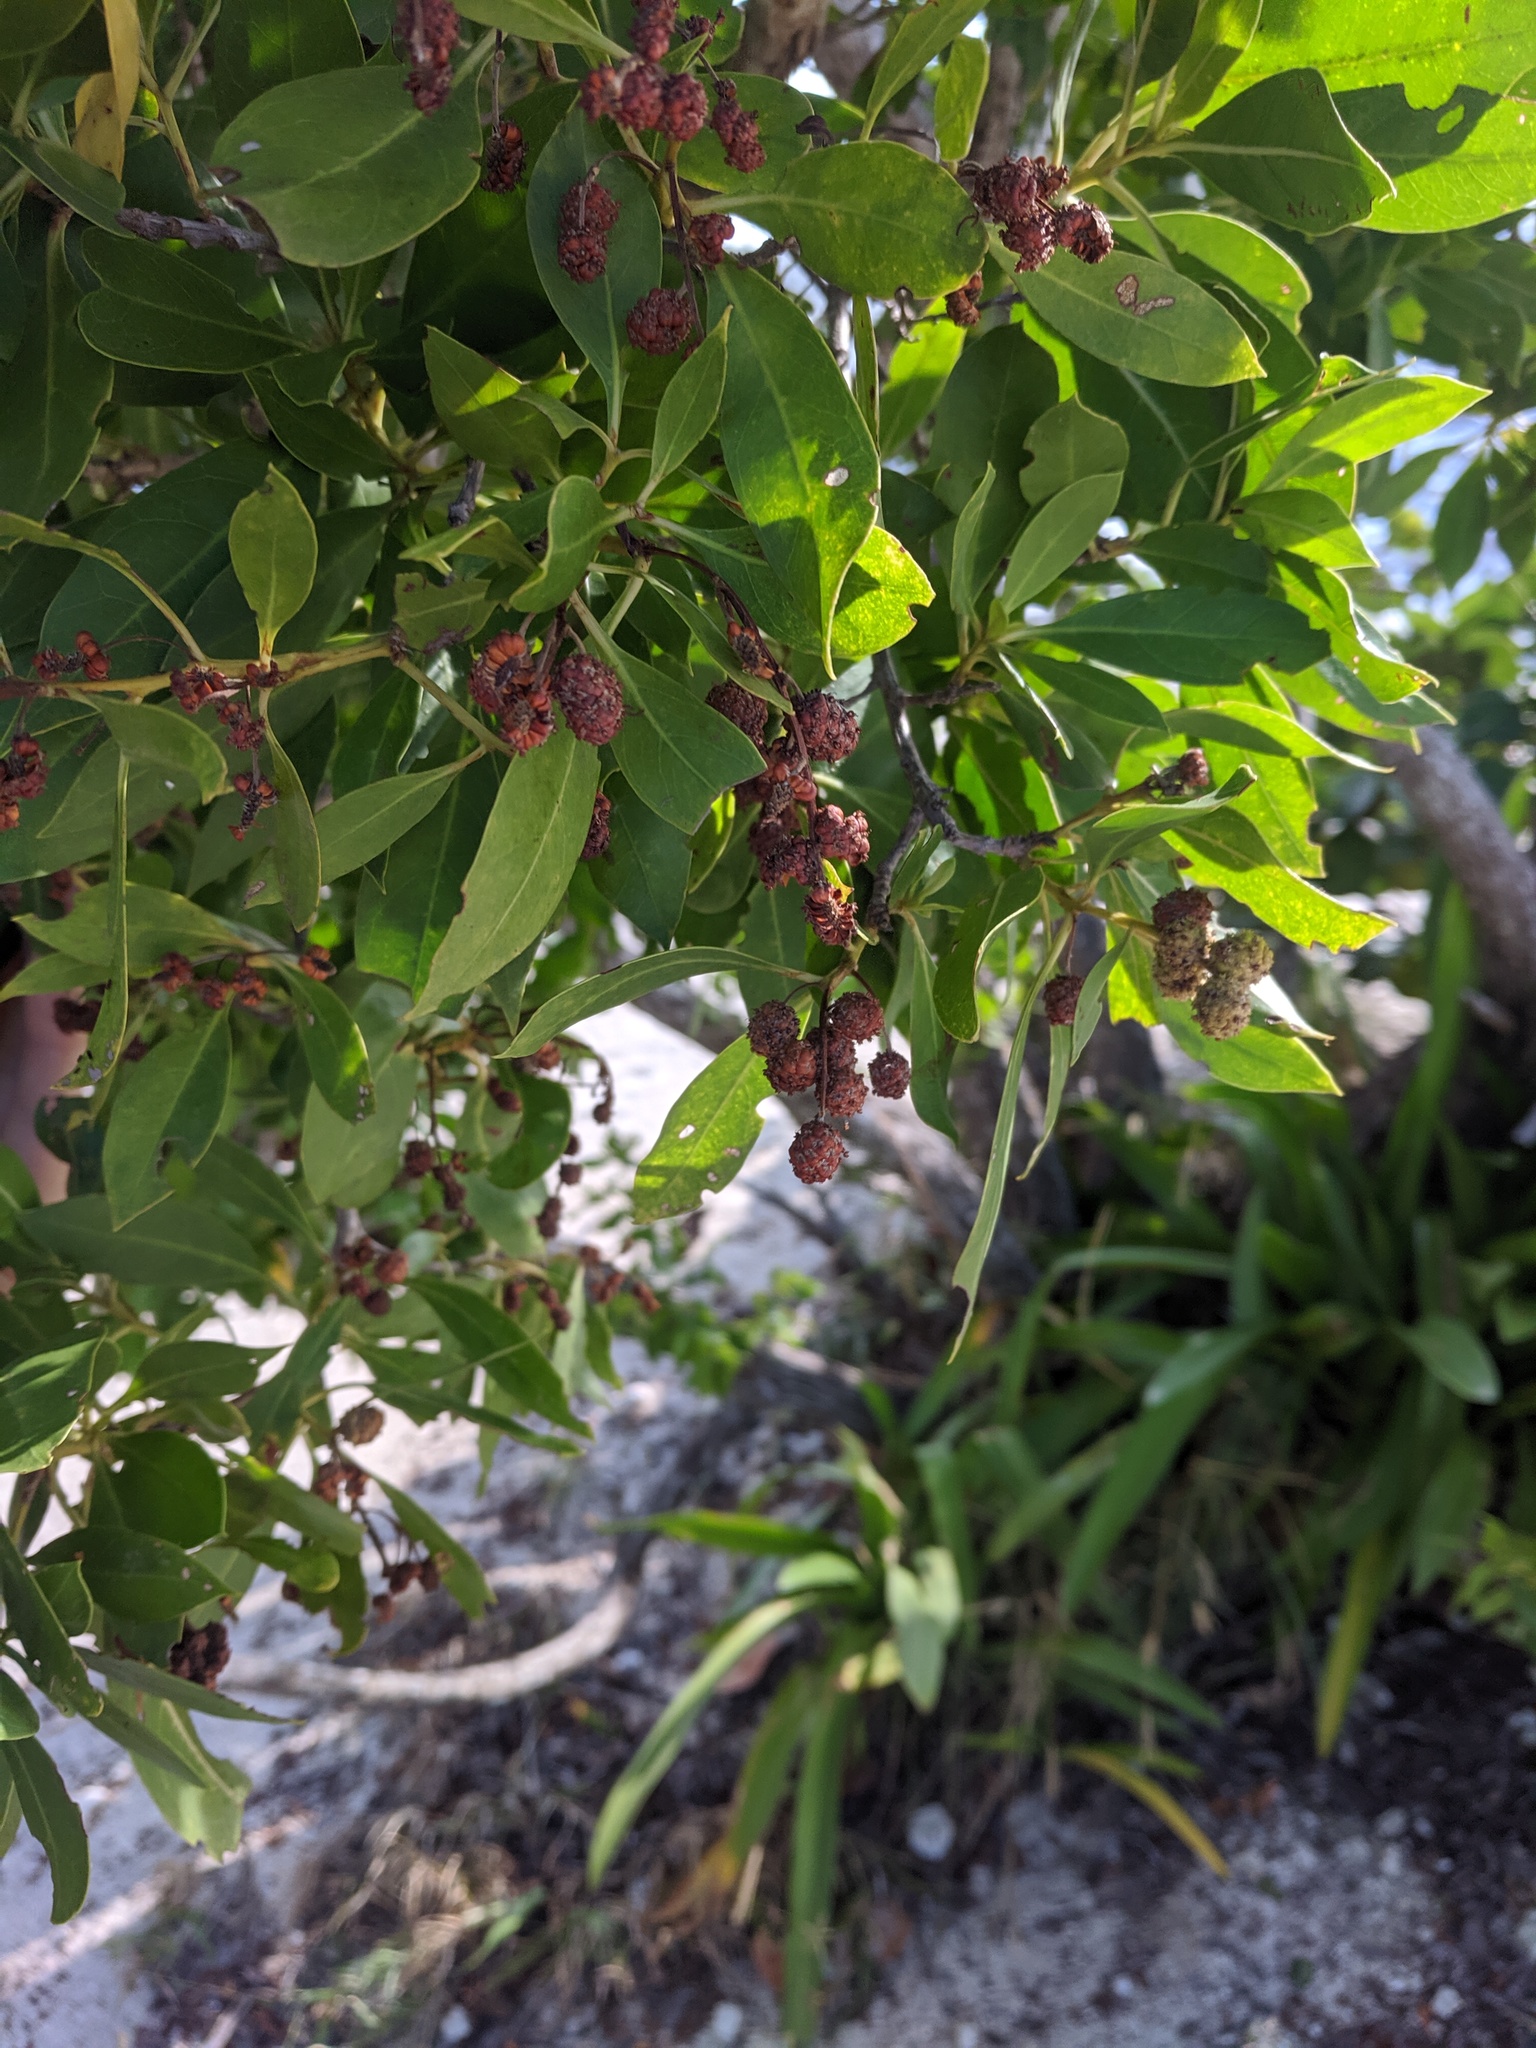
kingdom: Plantae
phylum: Tracheophyta
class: Magnoliopsida
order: Myrtales
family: Combretaceae
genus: Conocarpus
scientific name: Conocarpus erectus
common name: Button mangrove
